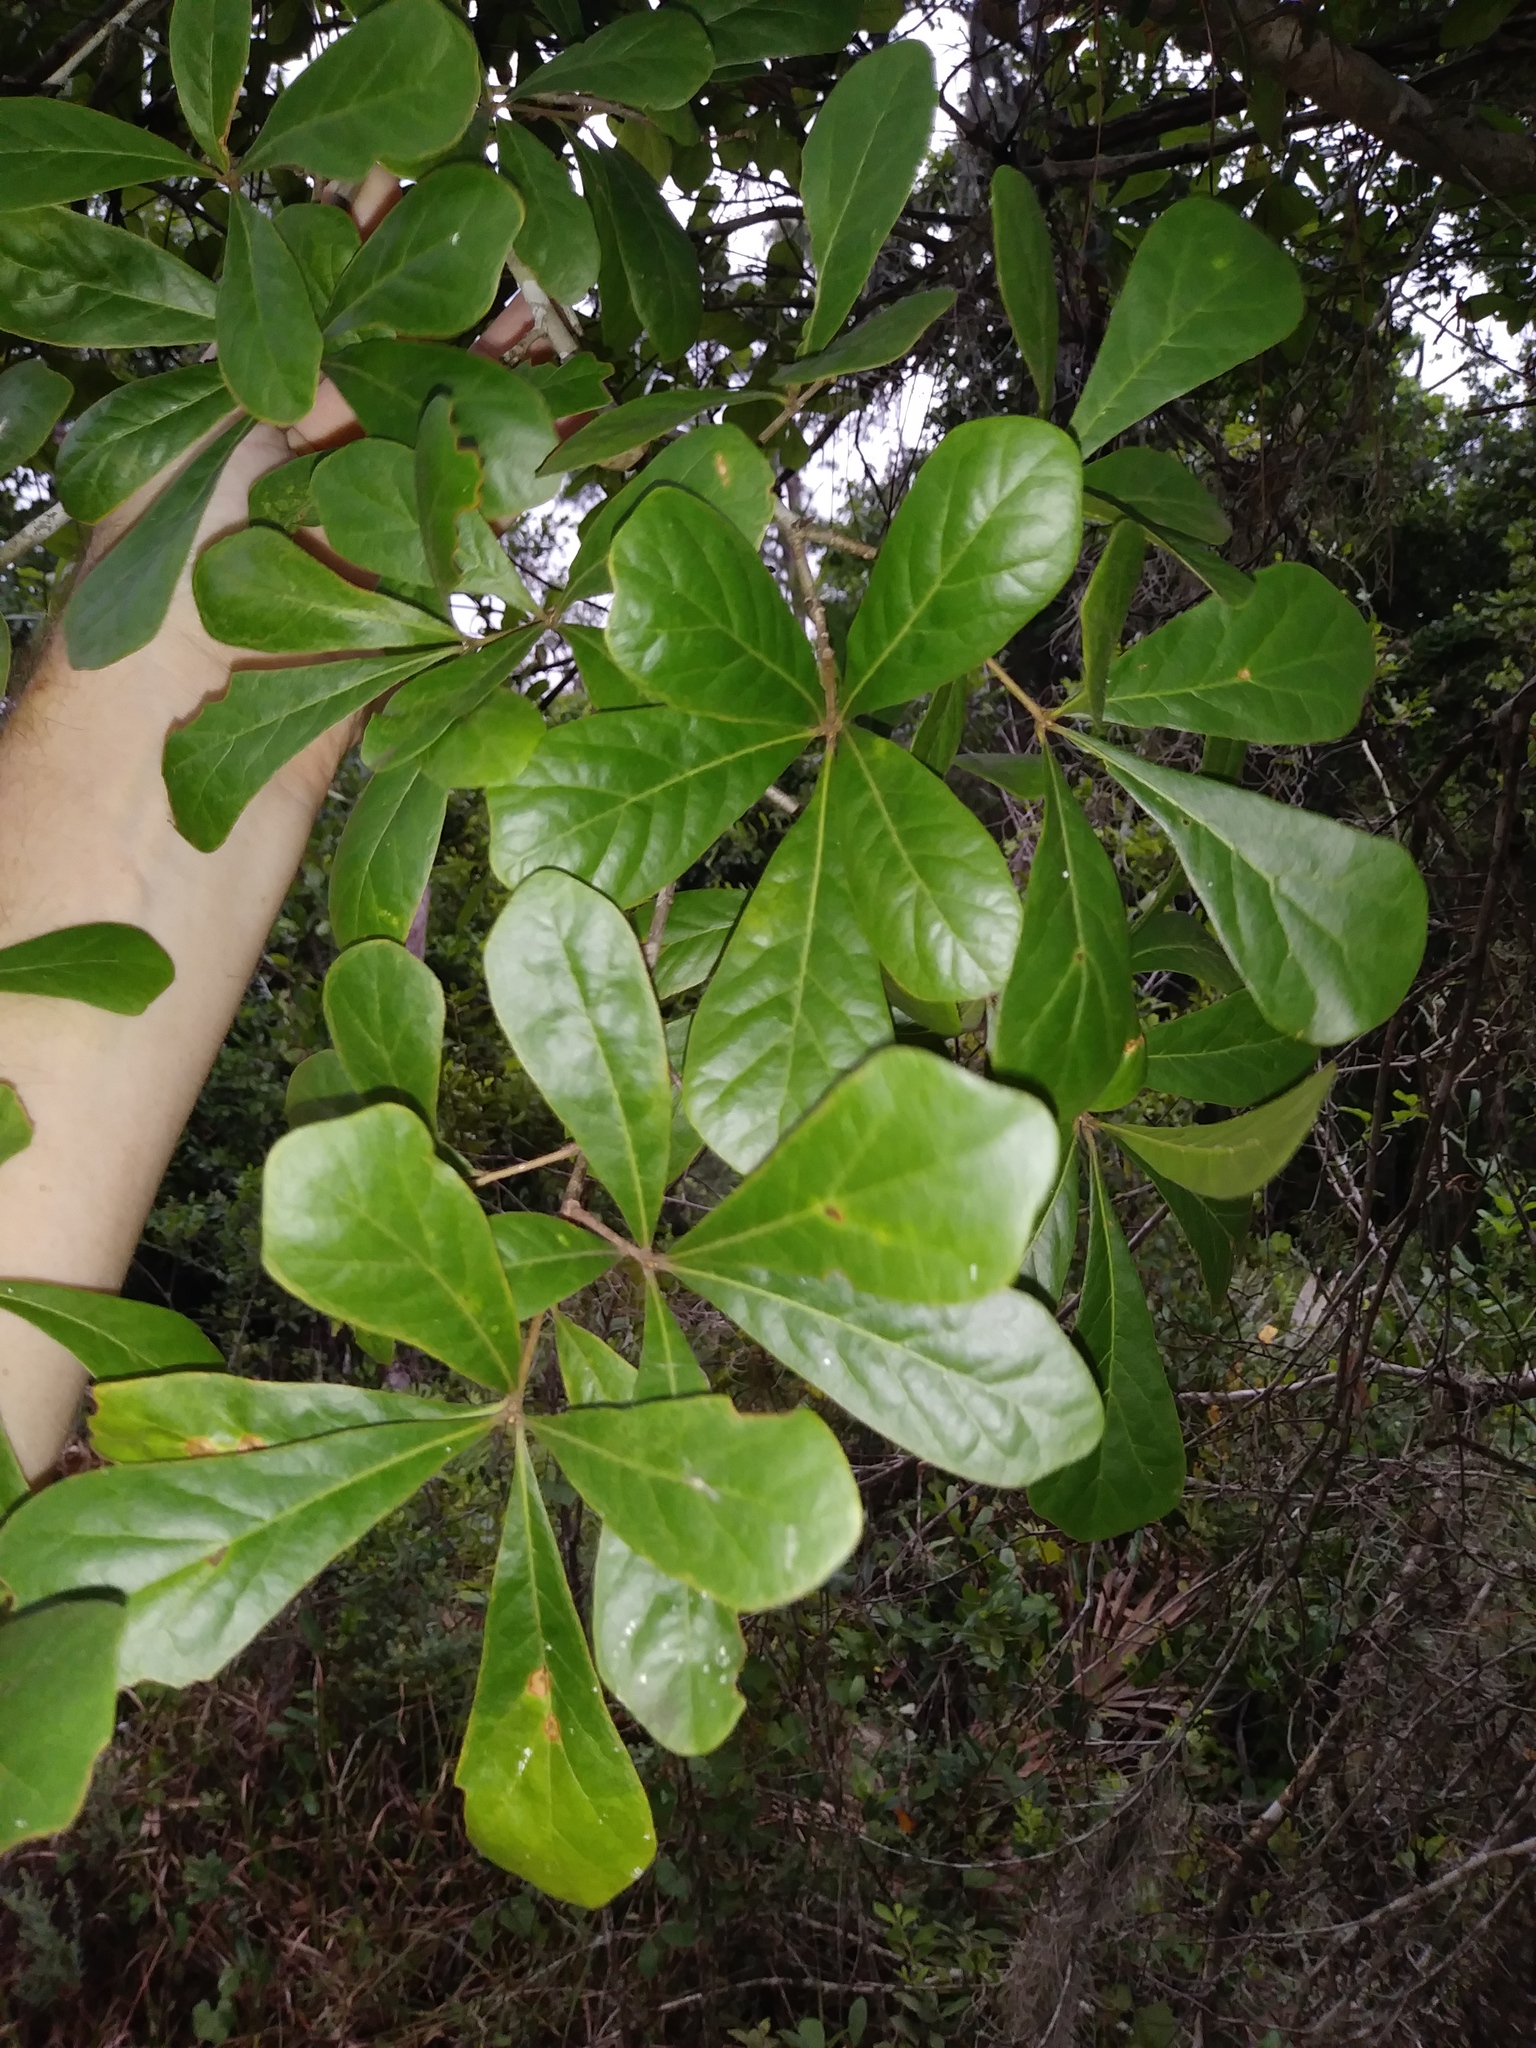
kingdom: Plantae
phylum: Tracheophyta
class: Magnoliopsida
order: Fagales
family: Fagaceae
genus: Quercus
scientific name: Quercus nigra
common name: Water oak
